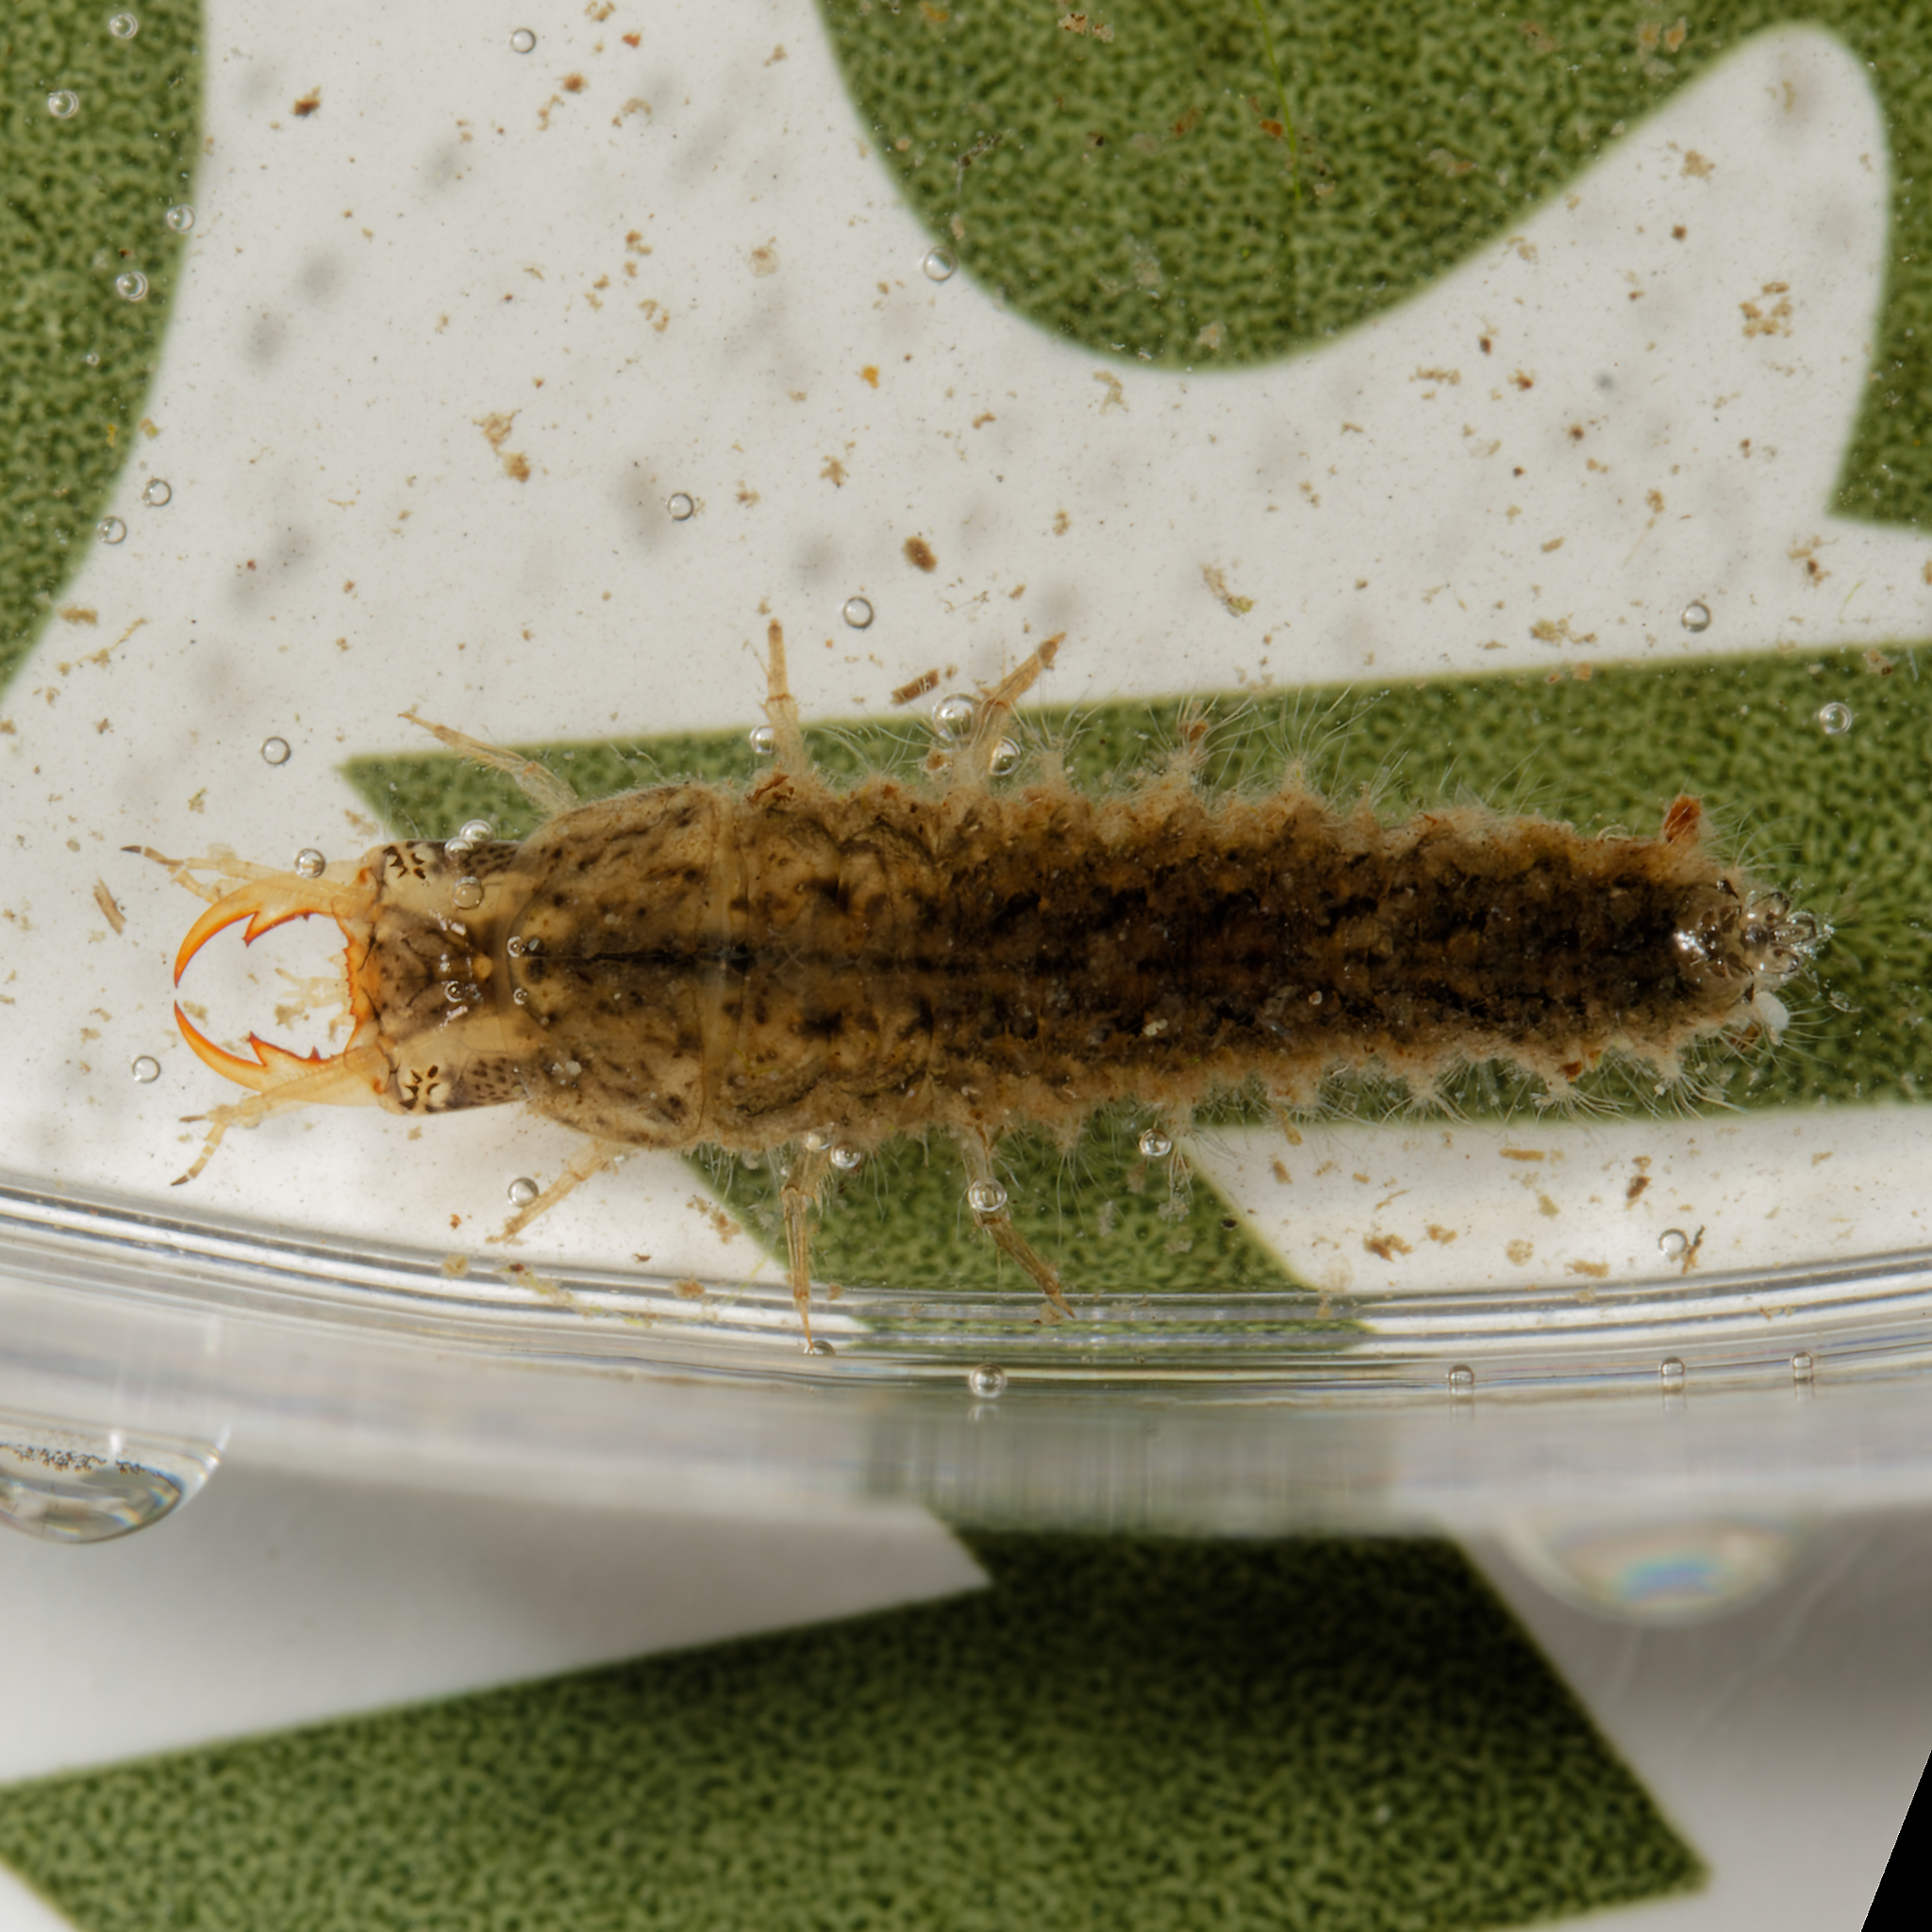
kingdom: Animalia
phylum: Arthropoda
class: Insecta
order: Coleoptera
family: Hydrophilidae
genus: Tropisternus
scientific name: Tropisternus
